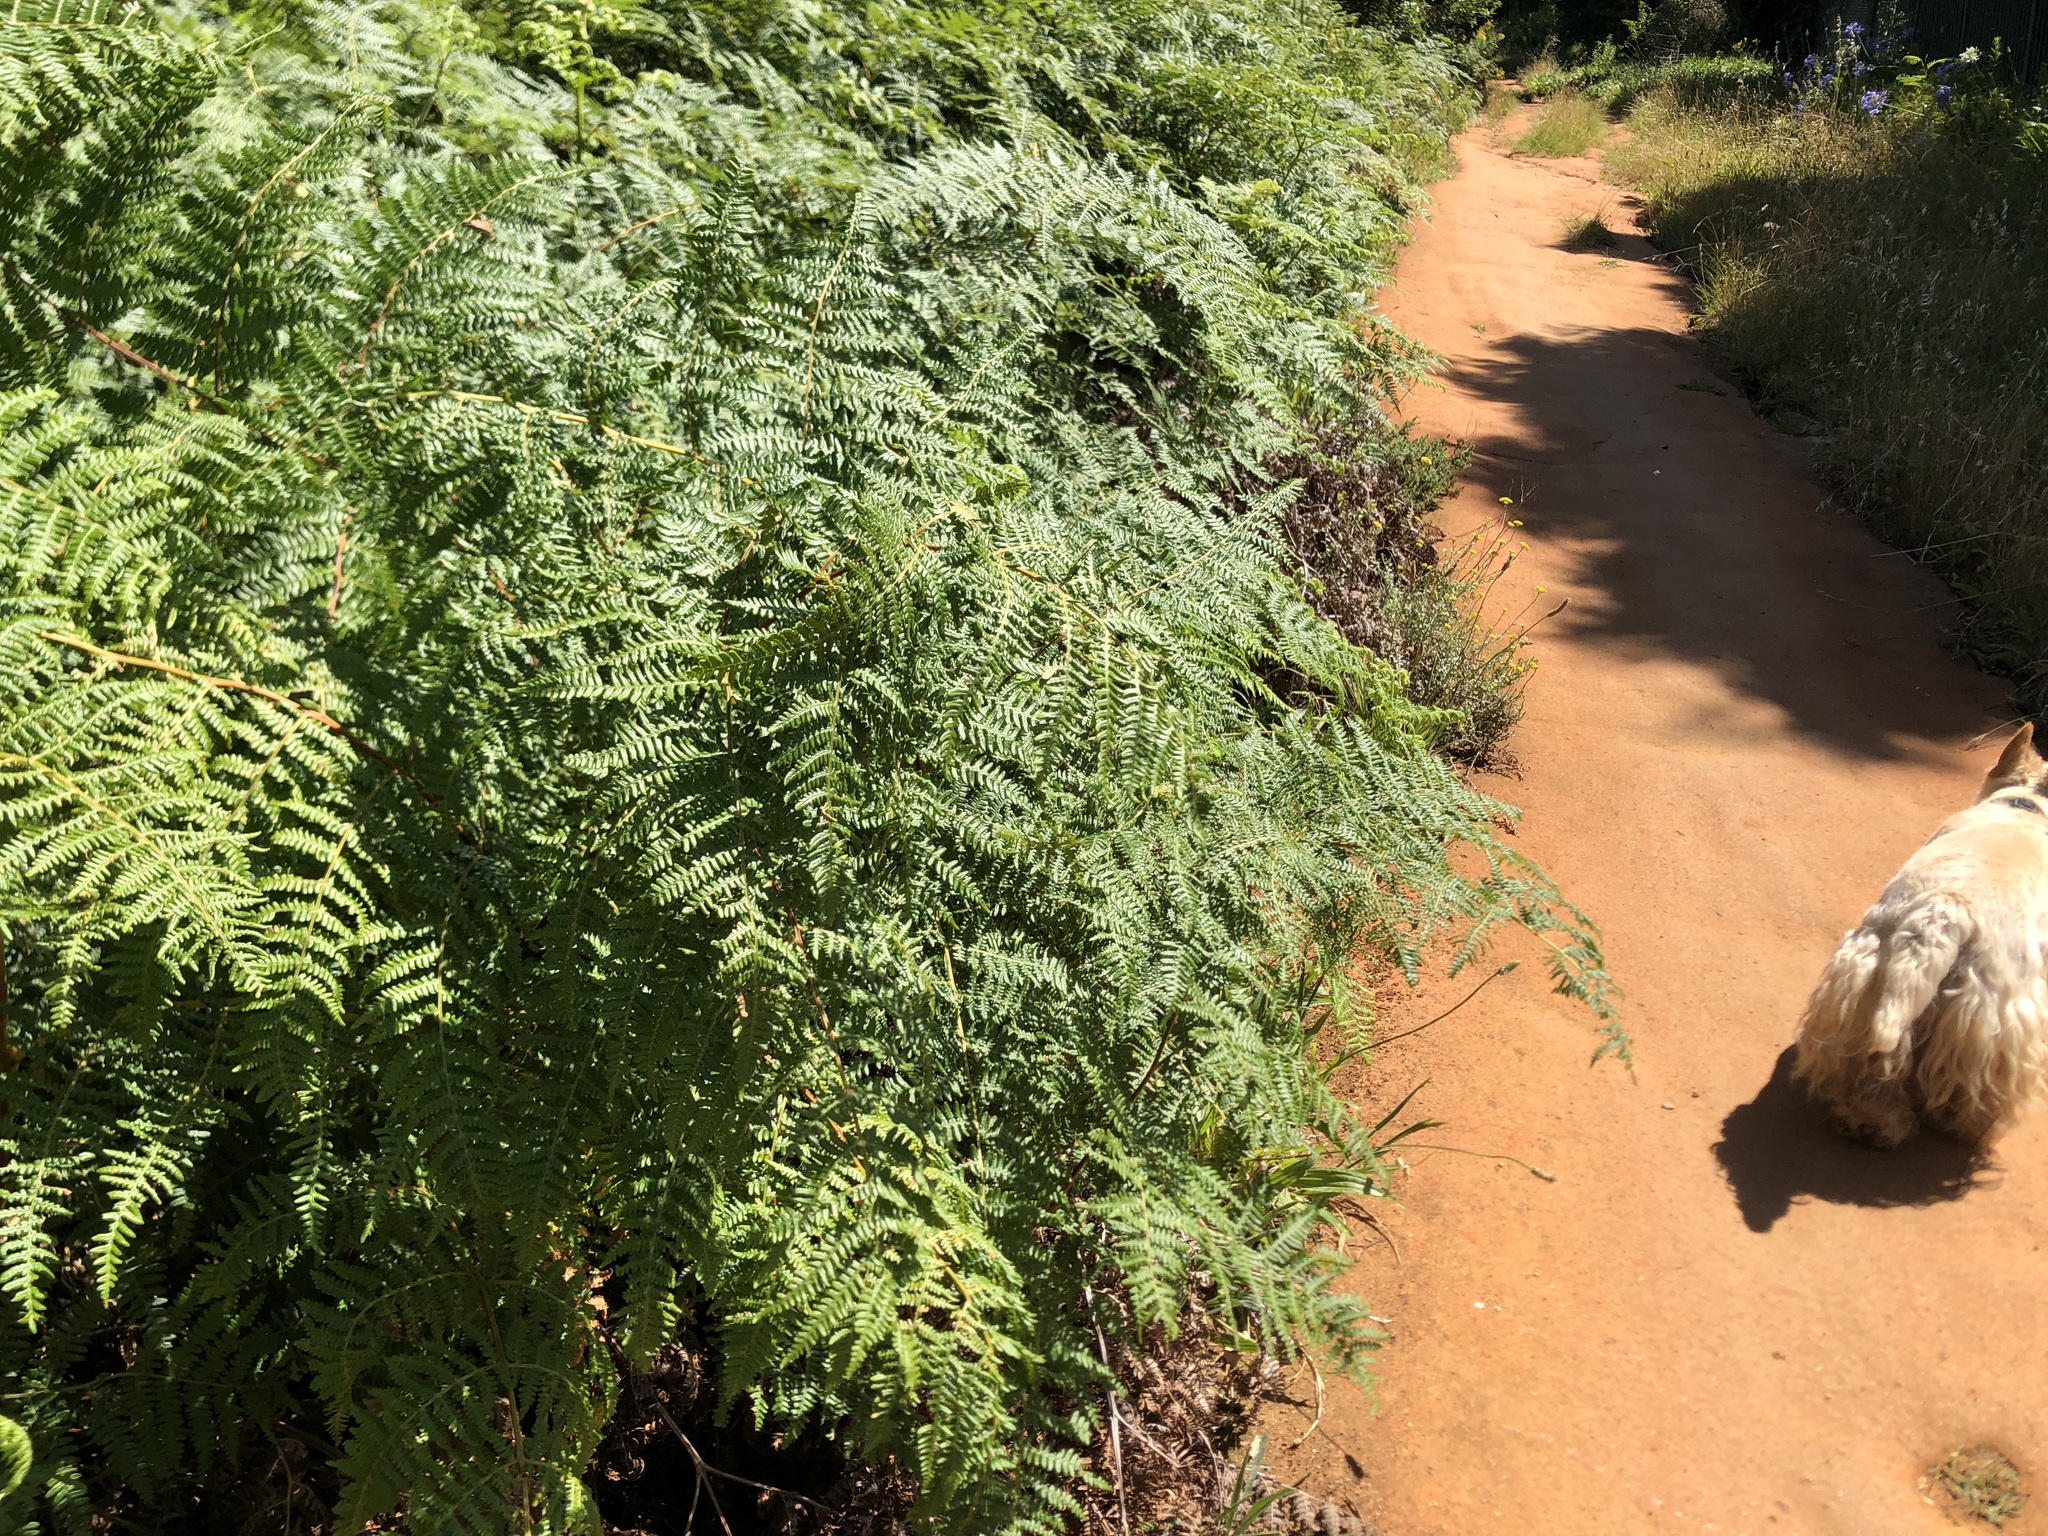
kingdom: Plantae
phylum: Tracheophyta
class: Polypodiopsida
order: Polypodiales
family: Dennstaedtiaceae
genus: Pteridium
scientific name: Pteridium aquilinum
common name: Bracken
